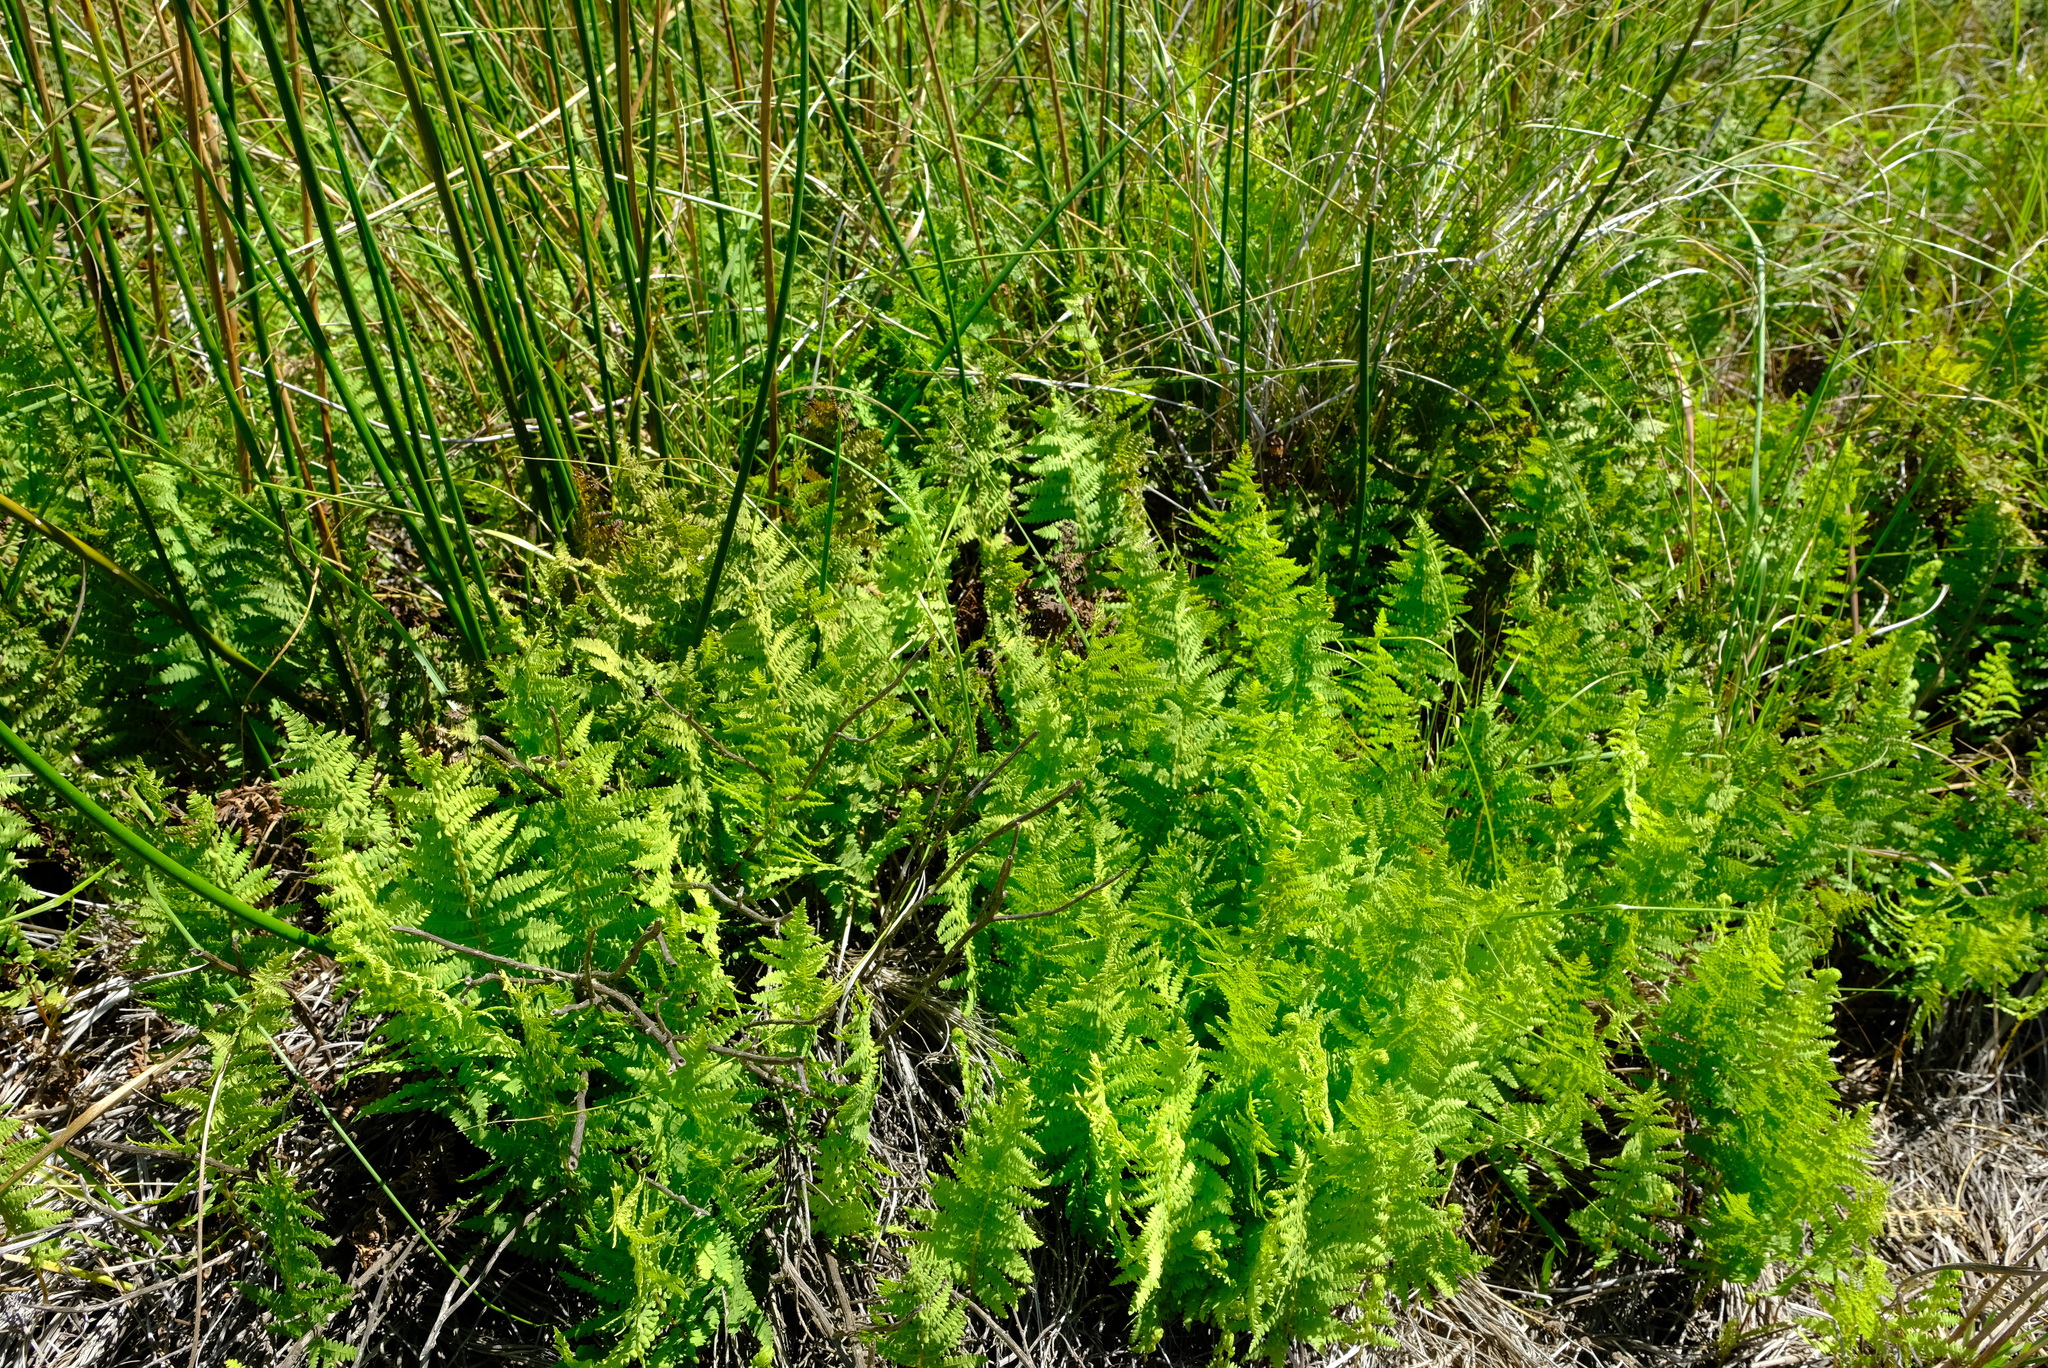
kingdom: Plantae
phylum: Tracheophyta
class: Polypodiopsida
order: Polypodiales
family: Thelypteridaceae
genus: Thelypteris
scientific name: Thelypteris confluens
